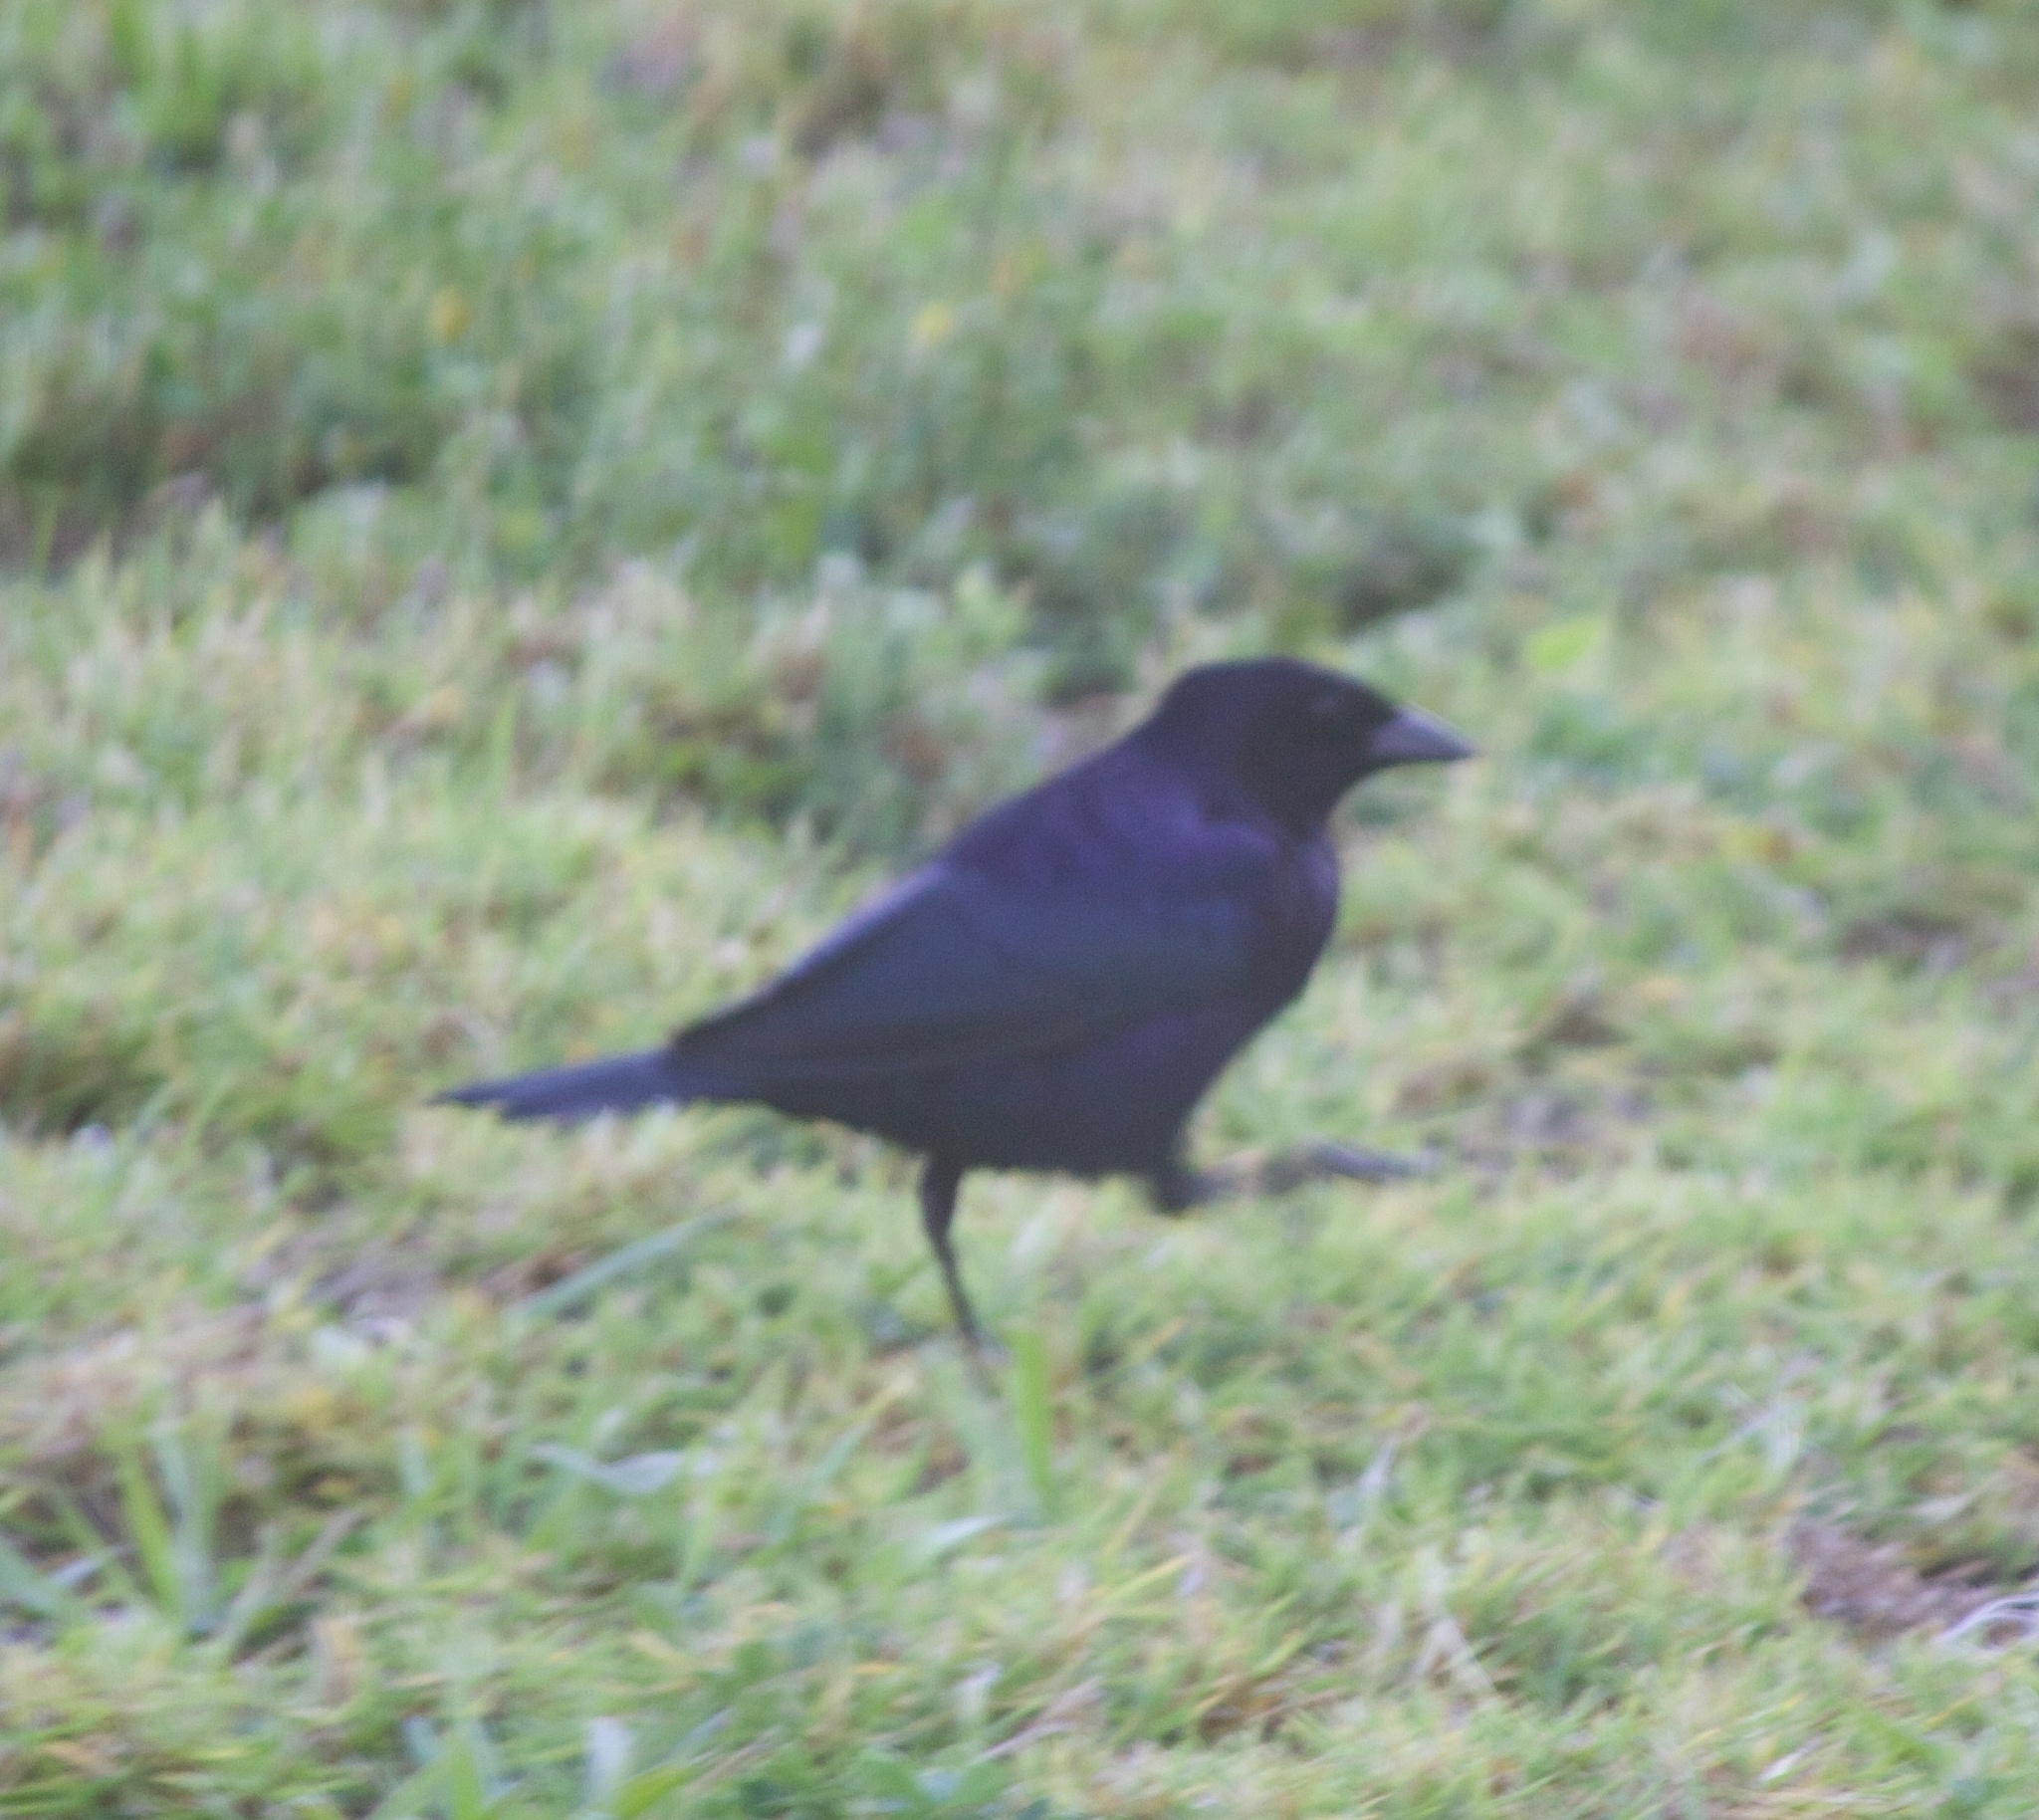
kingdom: Animalia
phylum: Chordata
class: Aves
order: Passeriformes
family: Icteridae
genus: Molothrus
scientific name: Molothrus bonariensis
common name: Shiny cowbird
